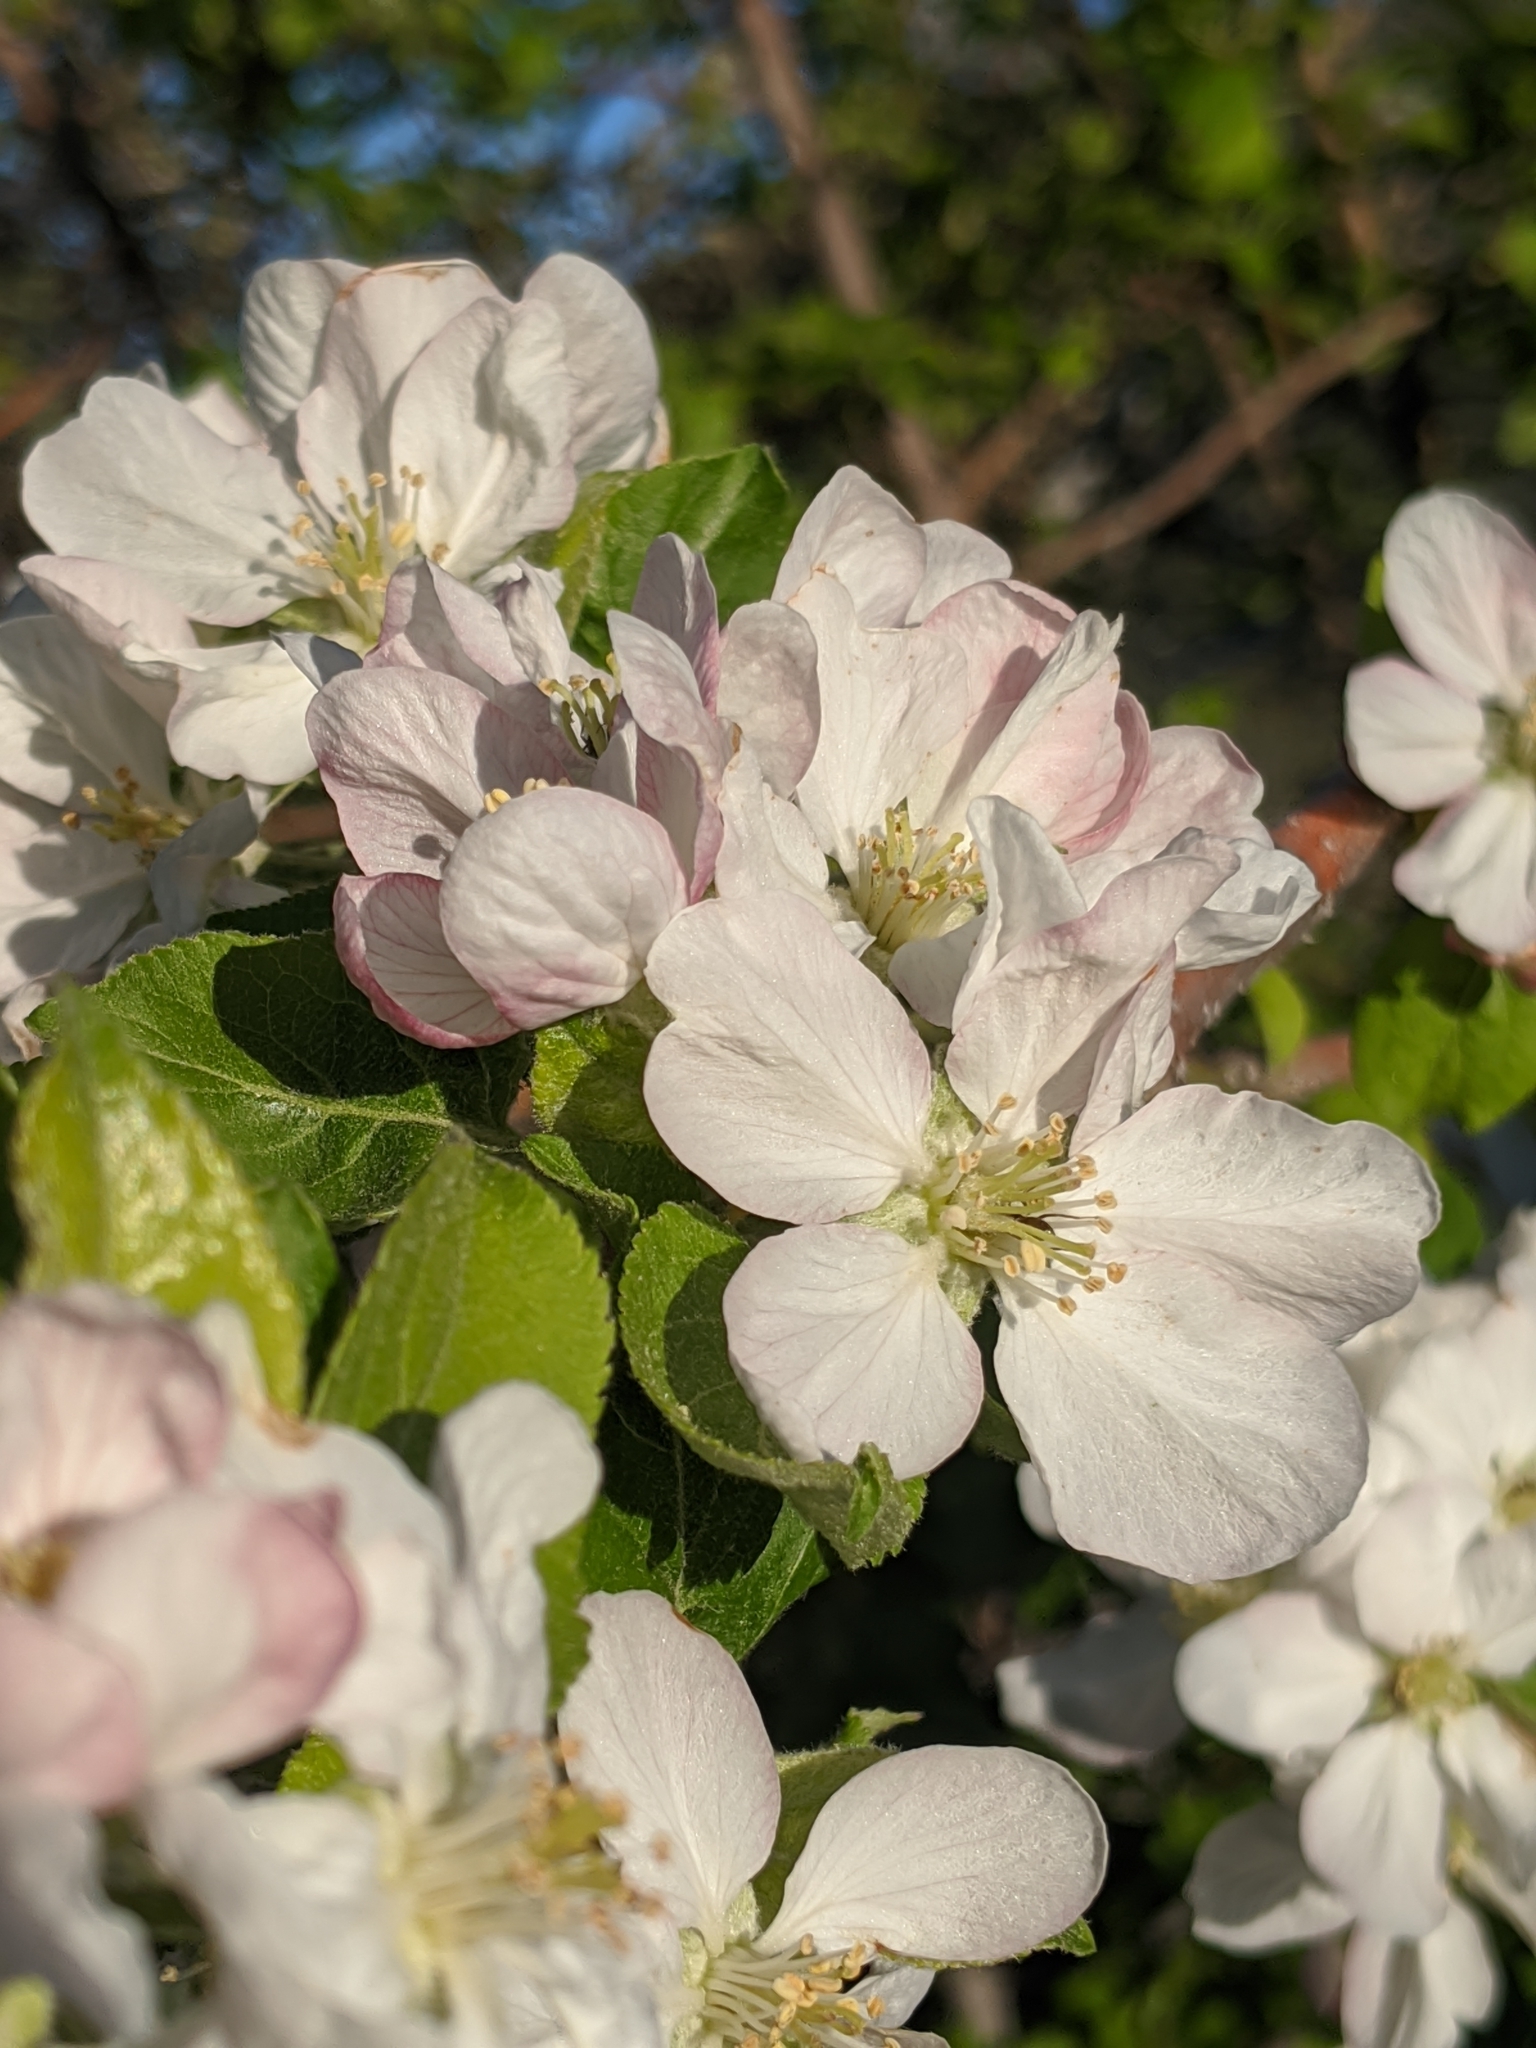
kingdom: Plantae
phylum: Tracheophyta
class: Magnoliopsida
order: Rosales
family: Rosaceae
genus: Malus
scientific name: Malus domestica
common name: Apple
